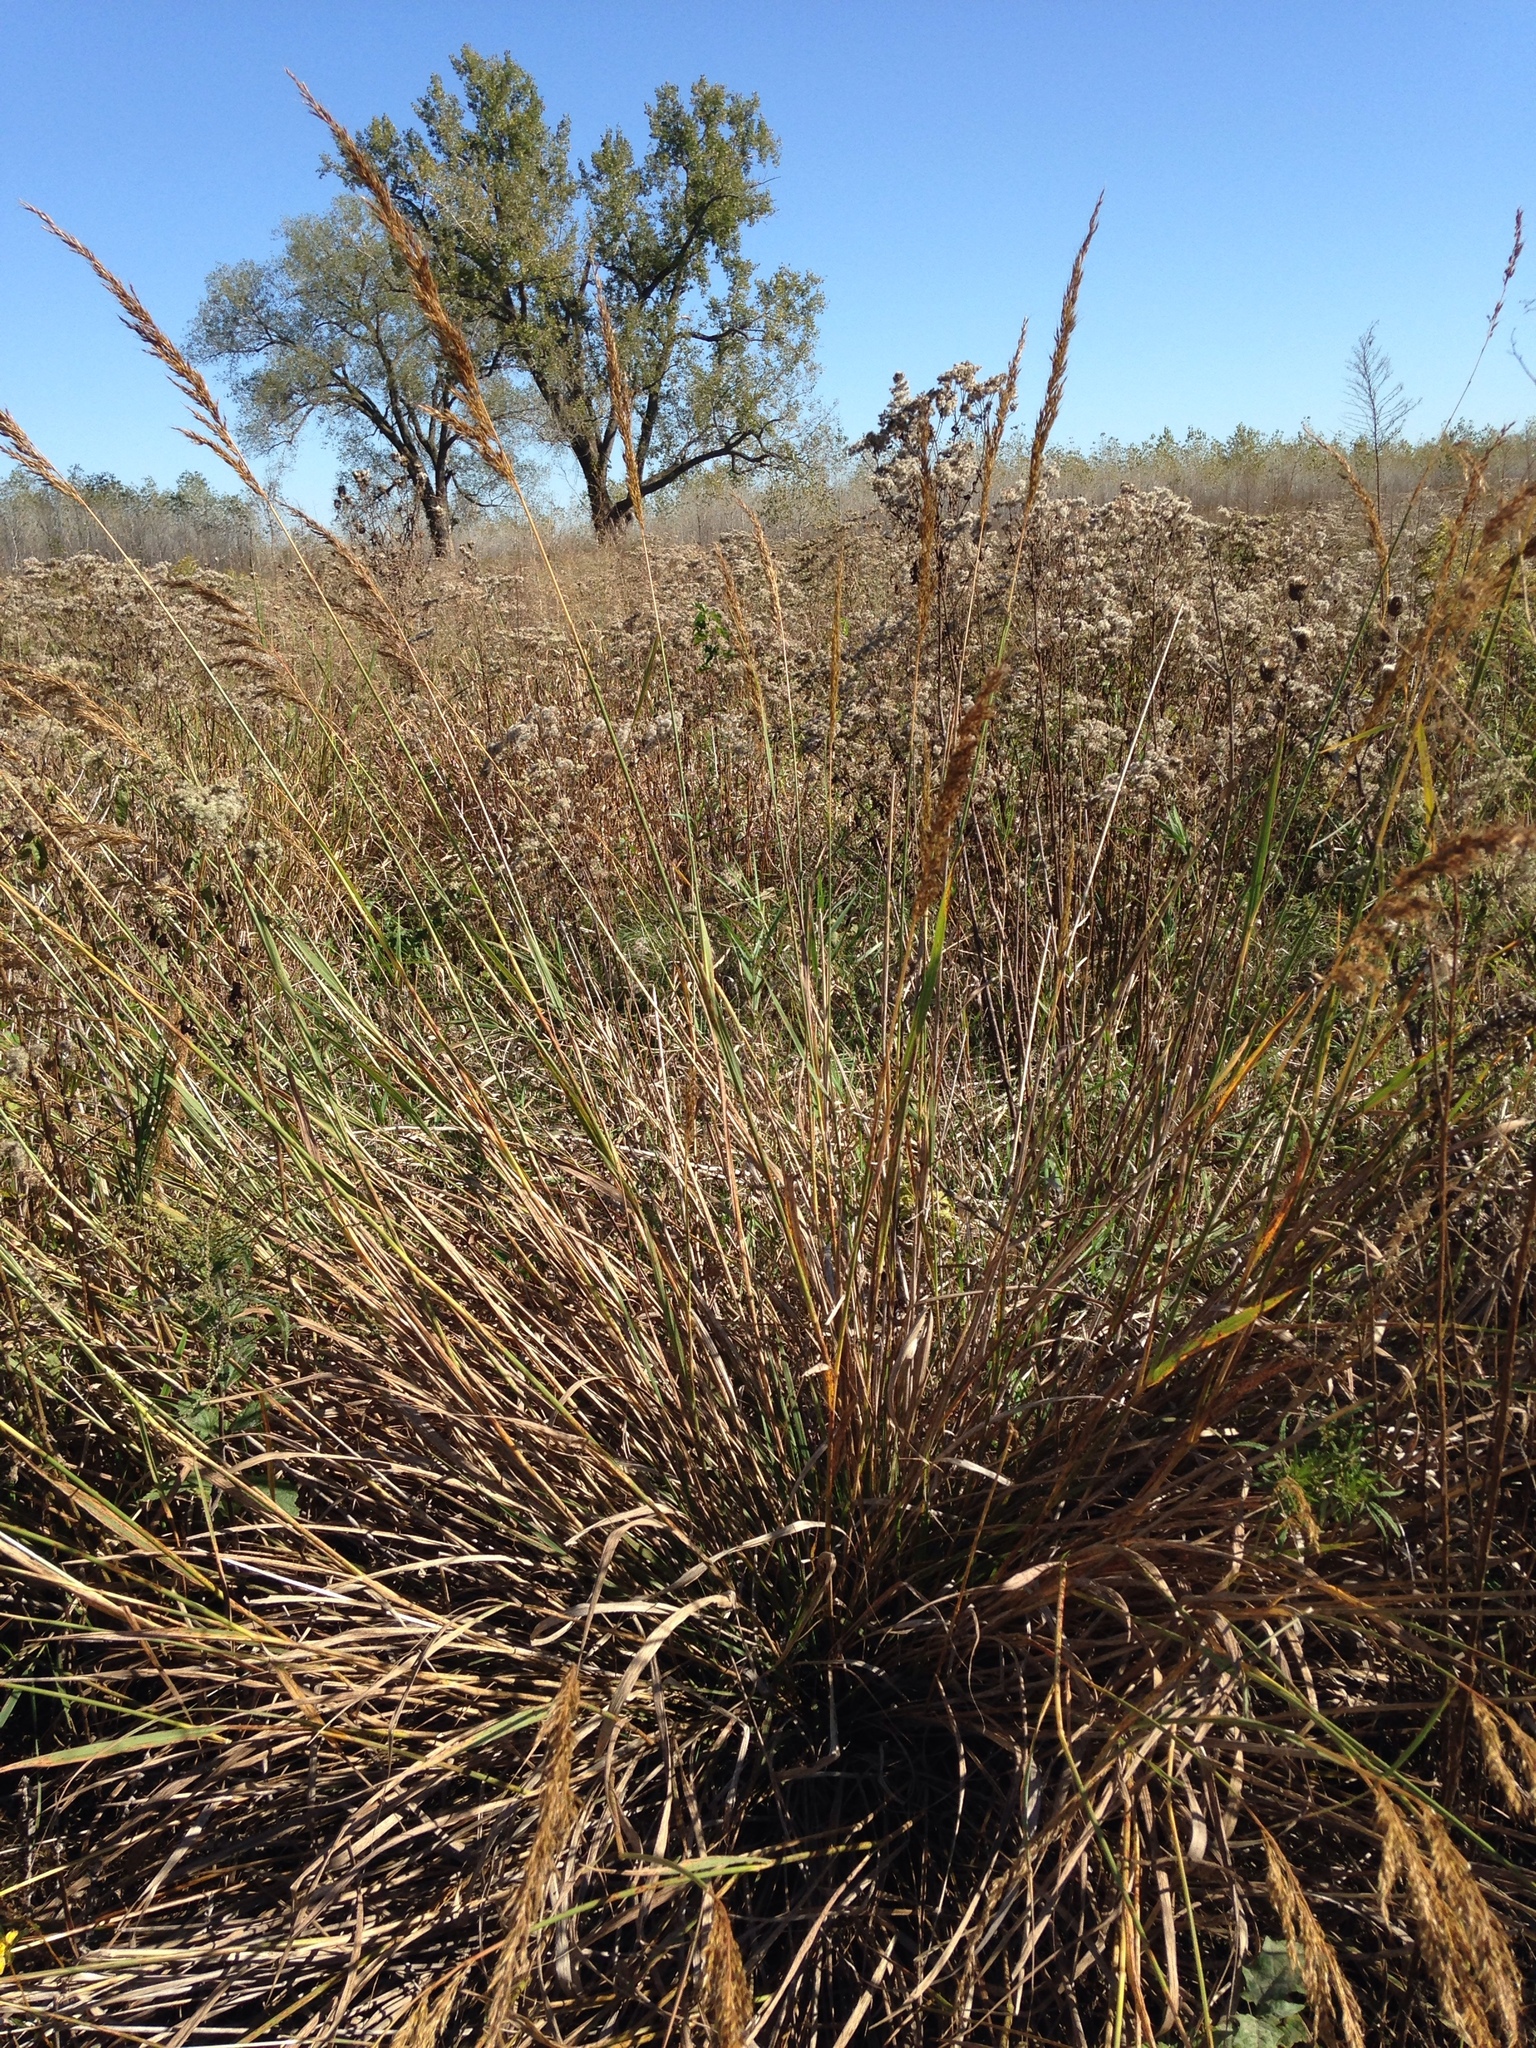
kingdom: Plantae
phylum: Tracheophyta
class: Liliopsida
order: Poales
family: Poaceae
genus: Sorghastrum
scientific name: Sorghastrum nutans
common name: Indian grass
